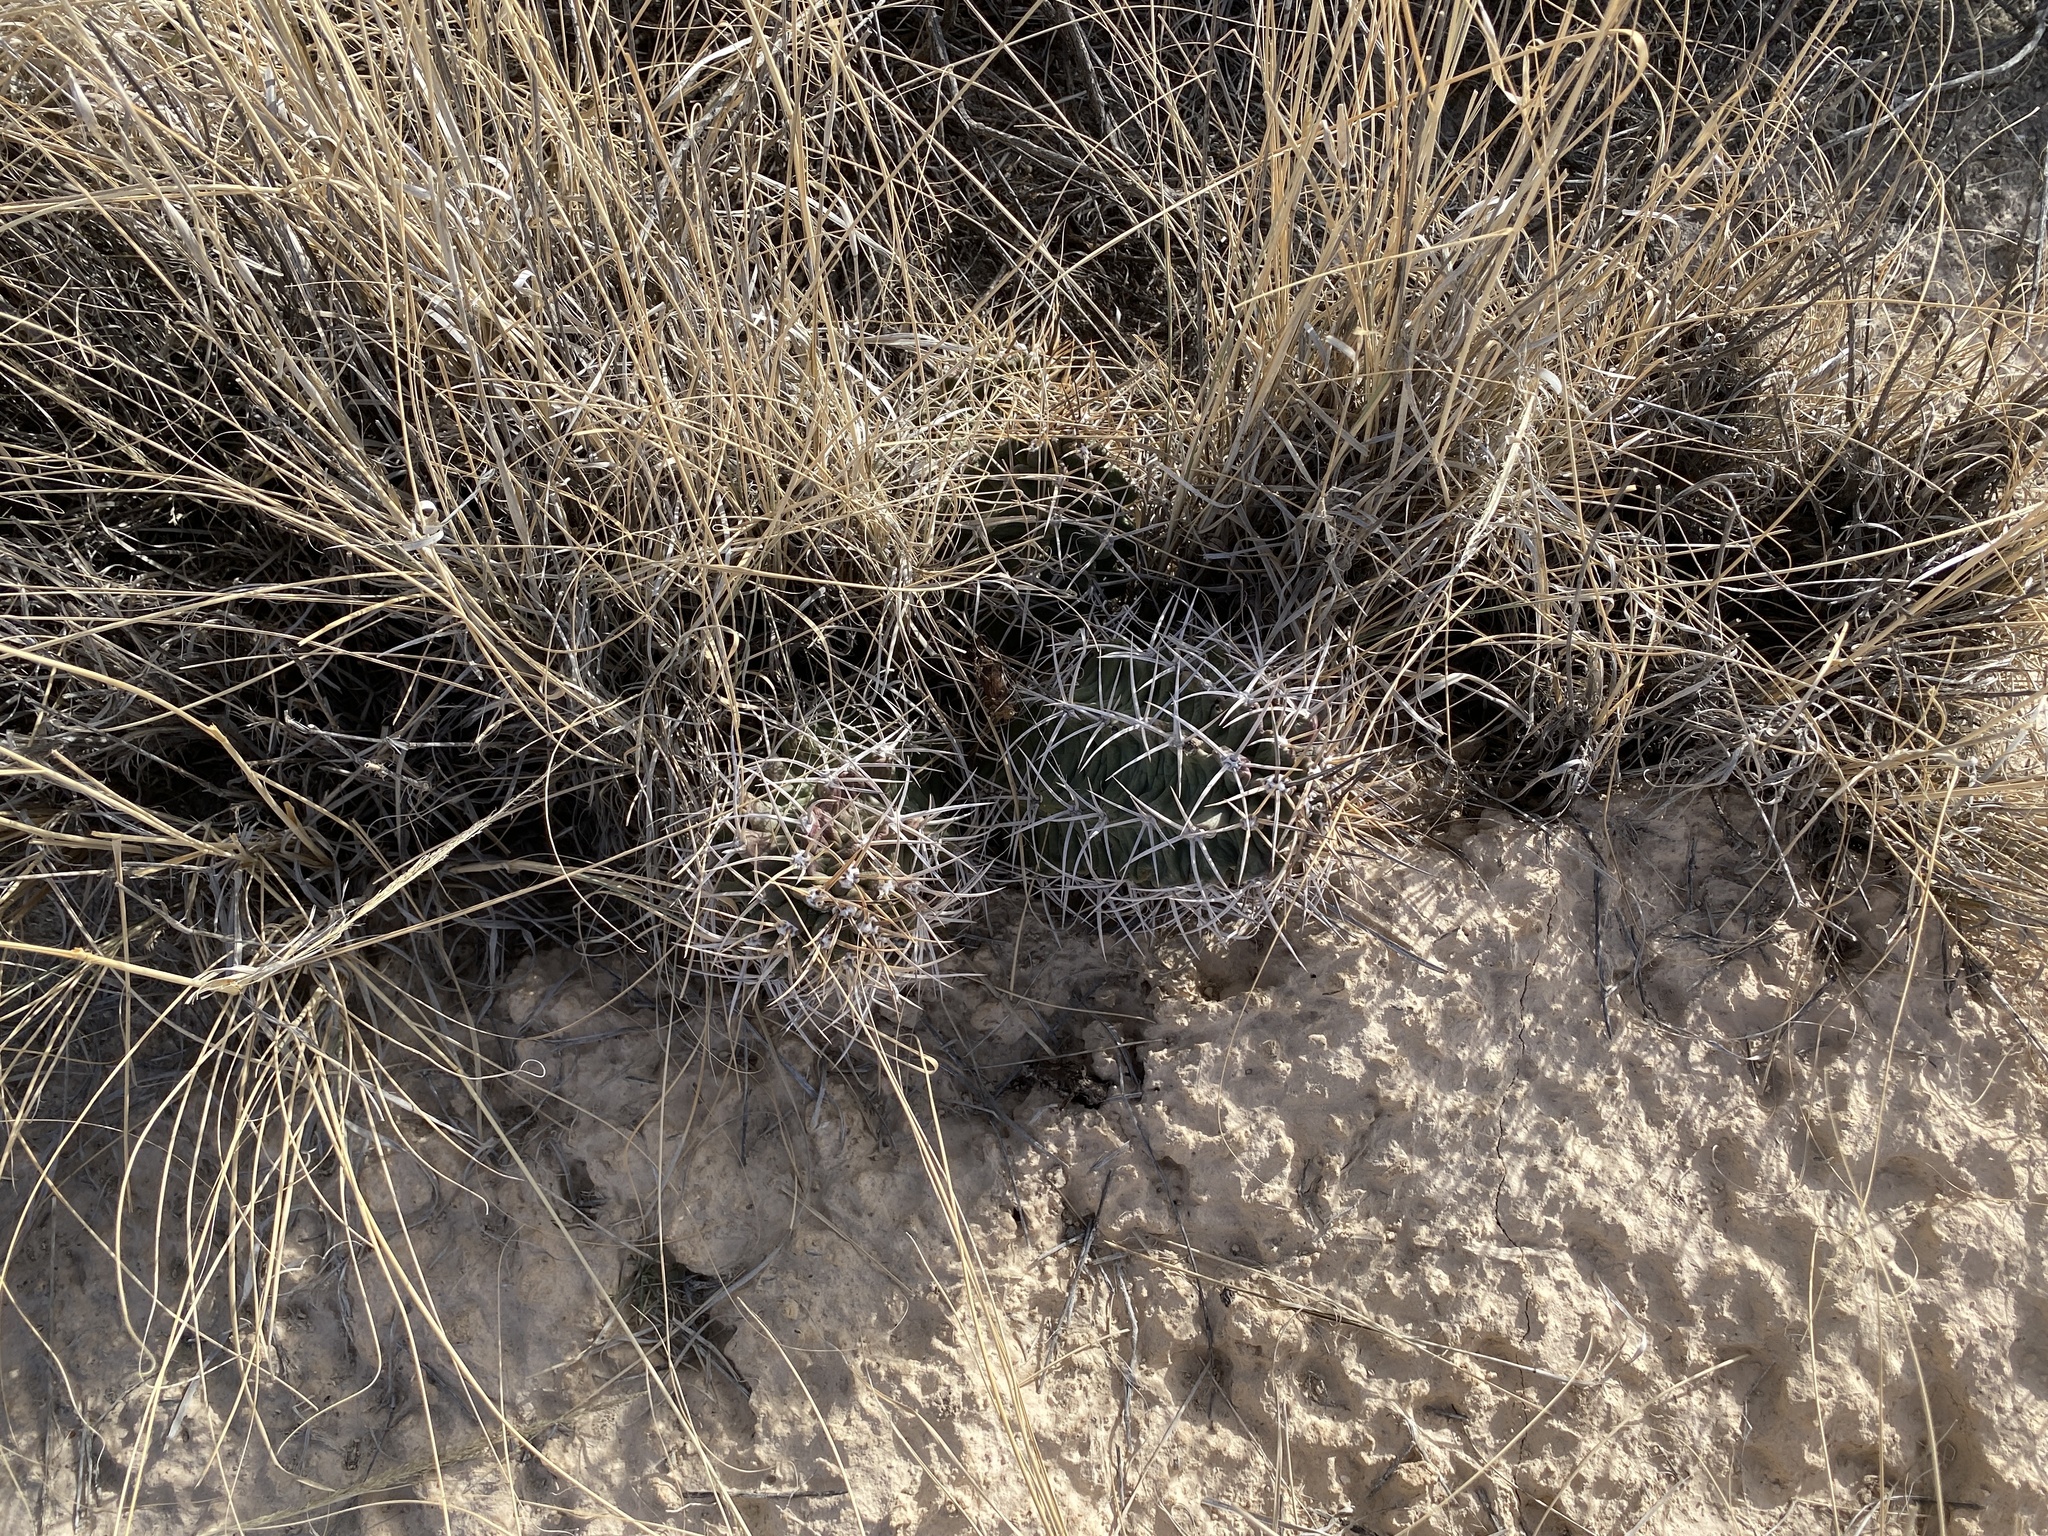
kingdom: Plantae
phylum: Tracheophyta
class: Magnoliopsida
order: Caryophyllales
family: Cactaceae
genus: Echinocereus
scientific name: Echinocereus triglochidiatus
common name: Claretcup hedgehog
